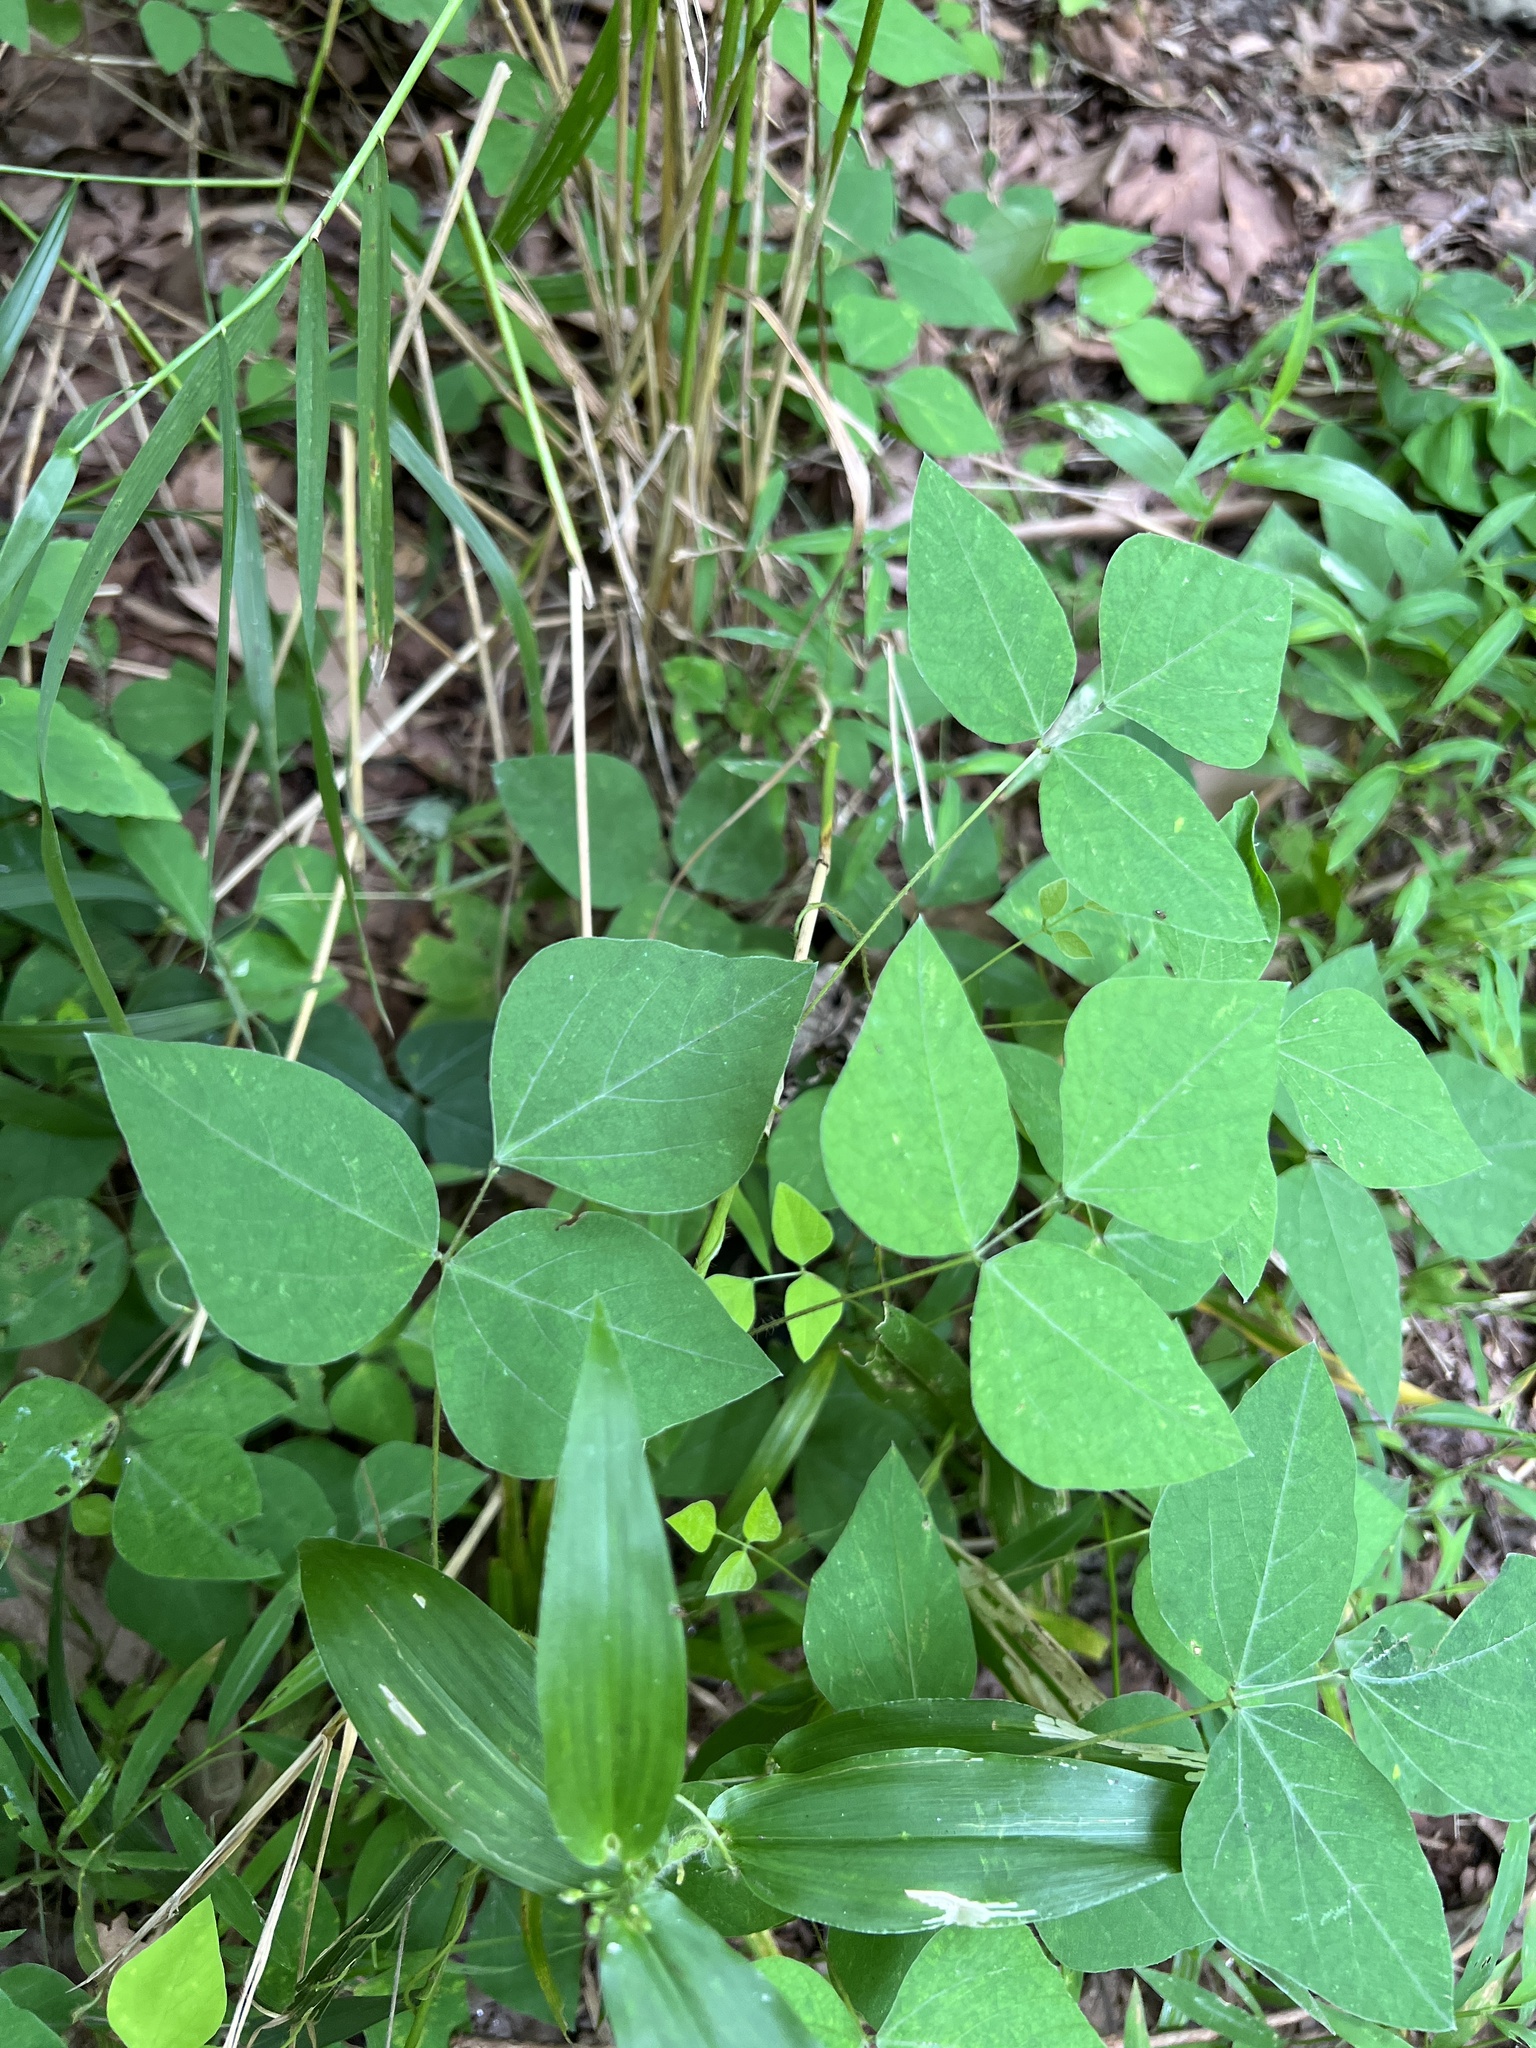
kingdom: Plantae
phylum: Tracheophyta
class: Magnoliopsida
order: Fabales
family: Fabaceae
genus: Amphicarpaea
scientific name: Amphicarpaea bracteata
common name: American hog peanut
